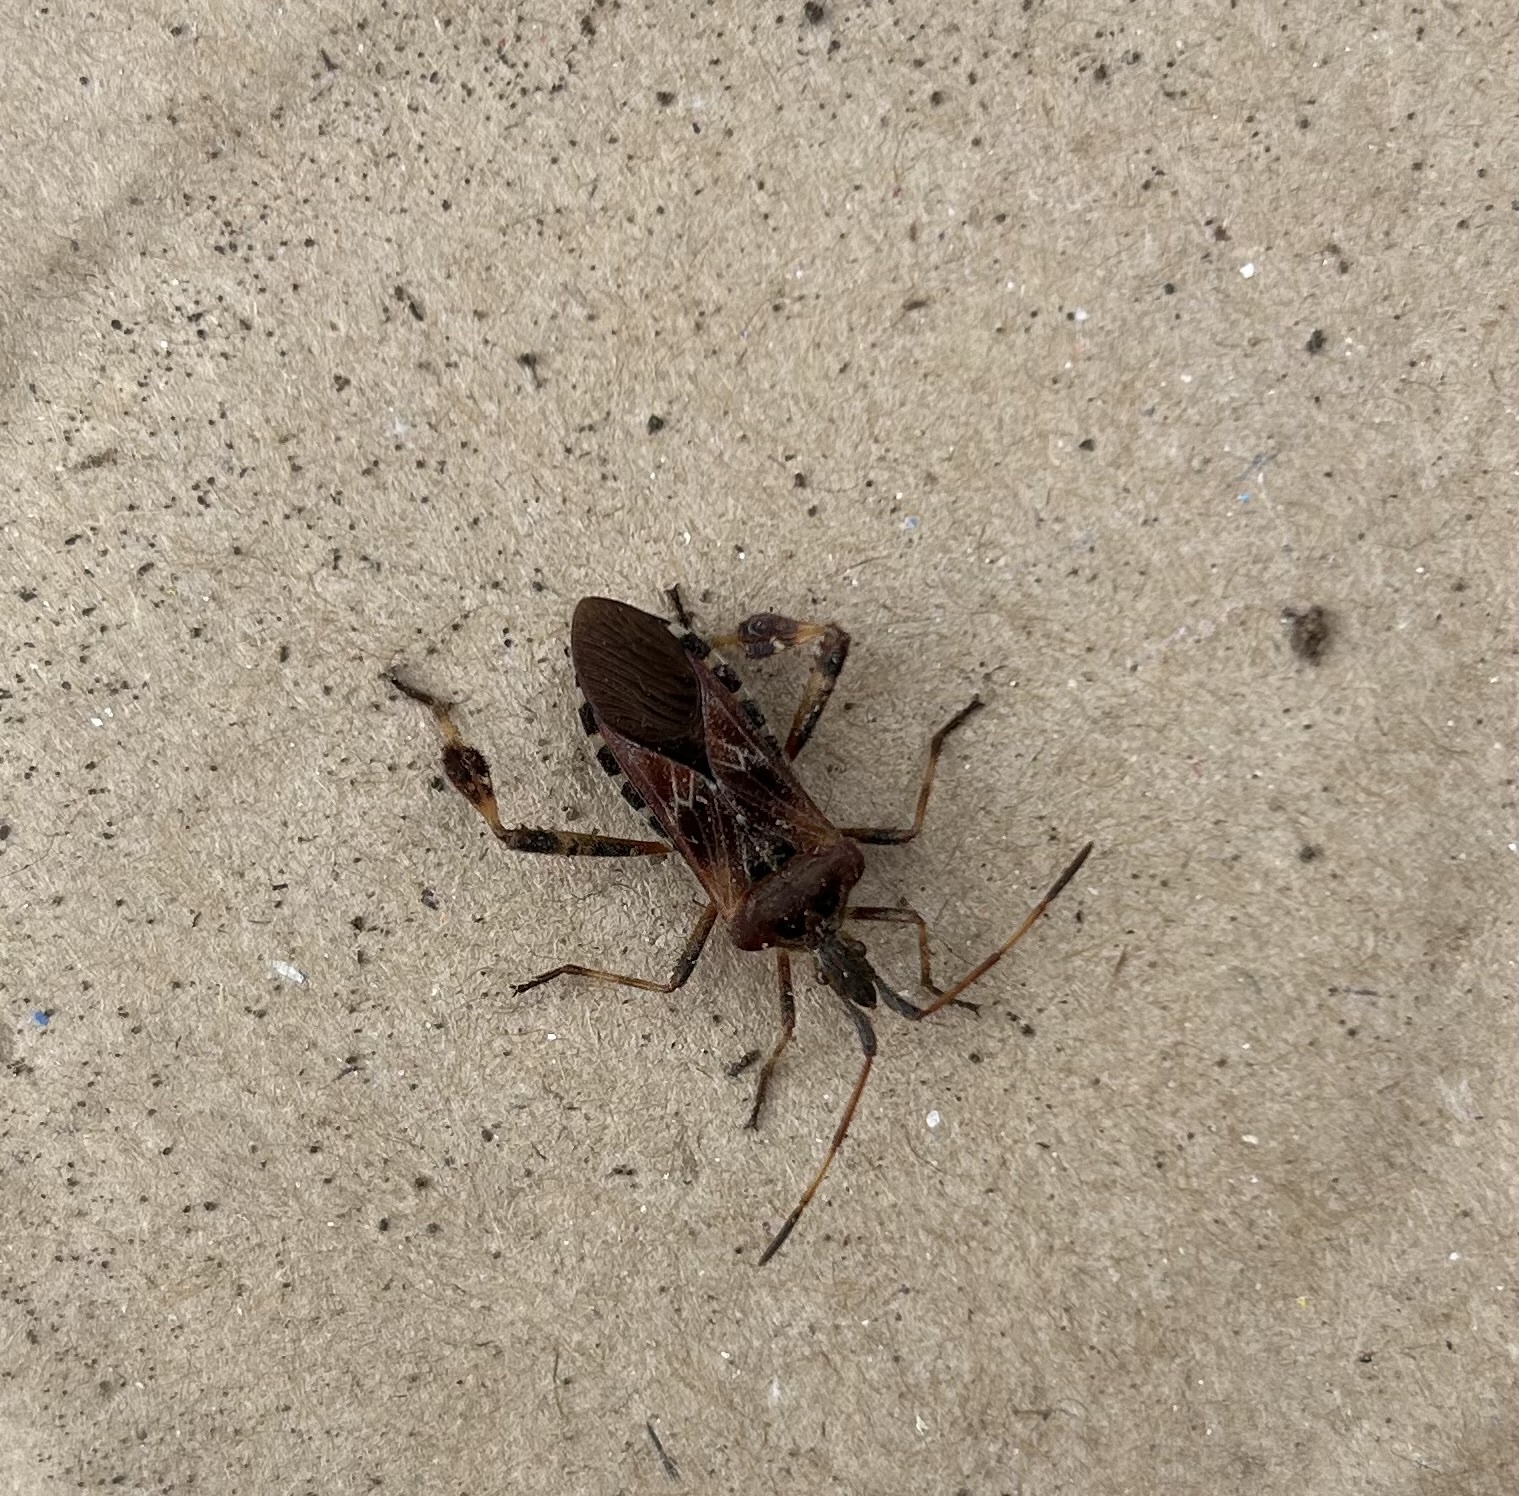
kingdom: Animalia
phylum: Arthropoda
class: Insecta
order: Hemiptera
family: Coreidae
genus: Leptoglossus
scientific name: Leptoglossus occidentalis
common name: Western conifer-seed bug
